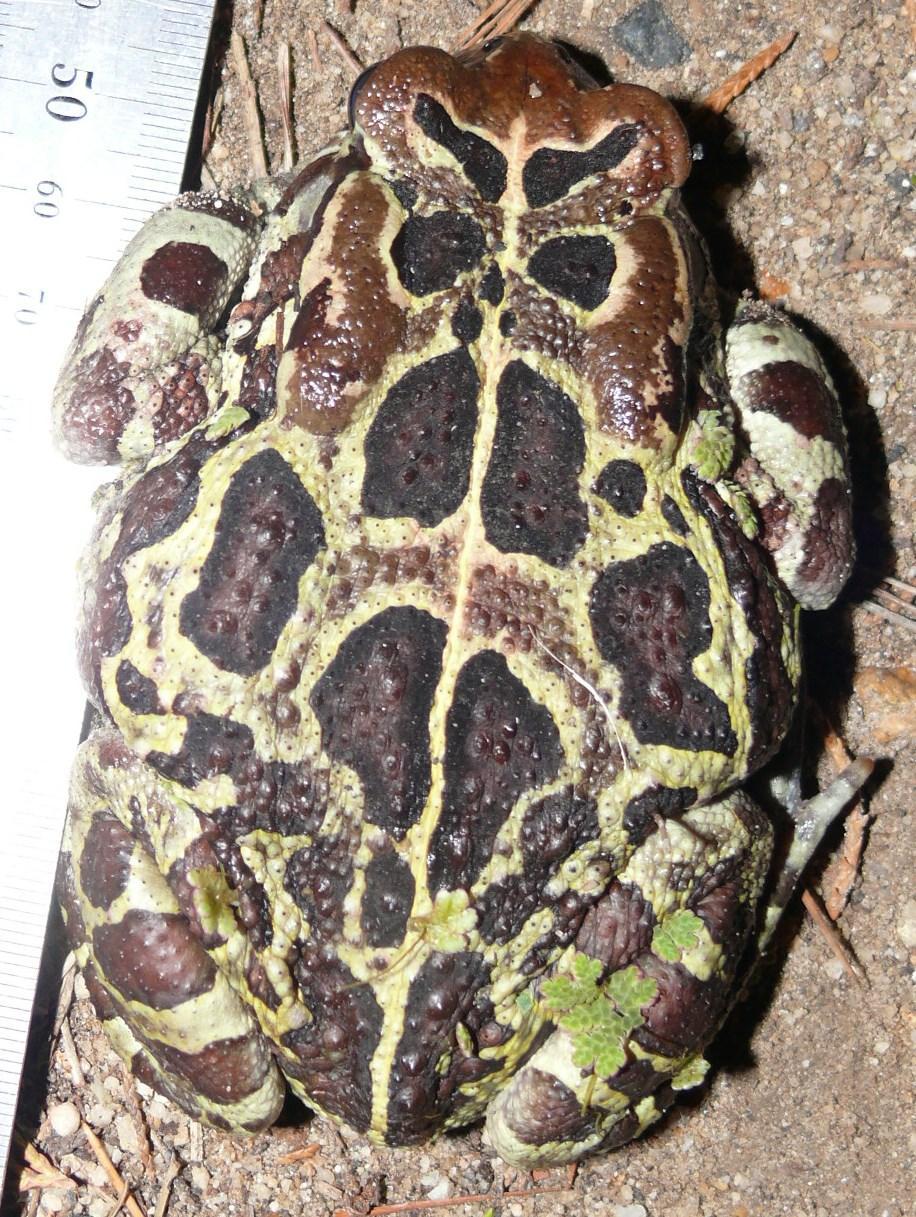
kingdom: Animalia
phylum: Chordata
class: Amphibia
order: Anura
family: Bufonidae
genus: Sclerophrys
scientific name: Sclerophrys pantherina
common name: Panther toad
